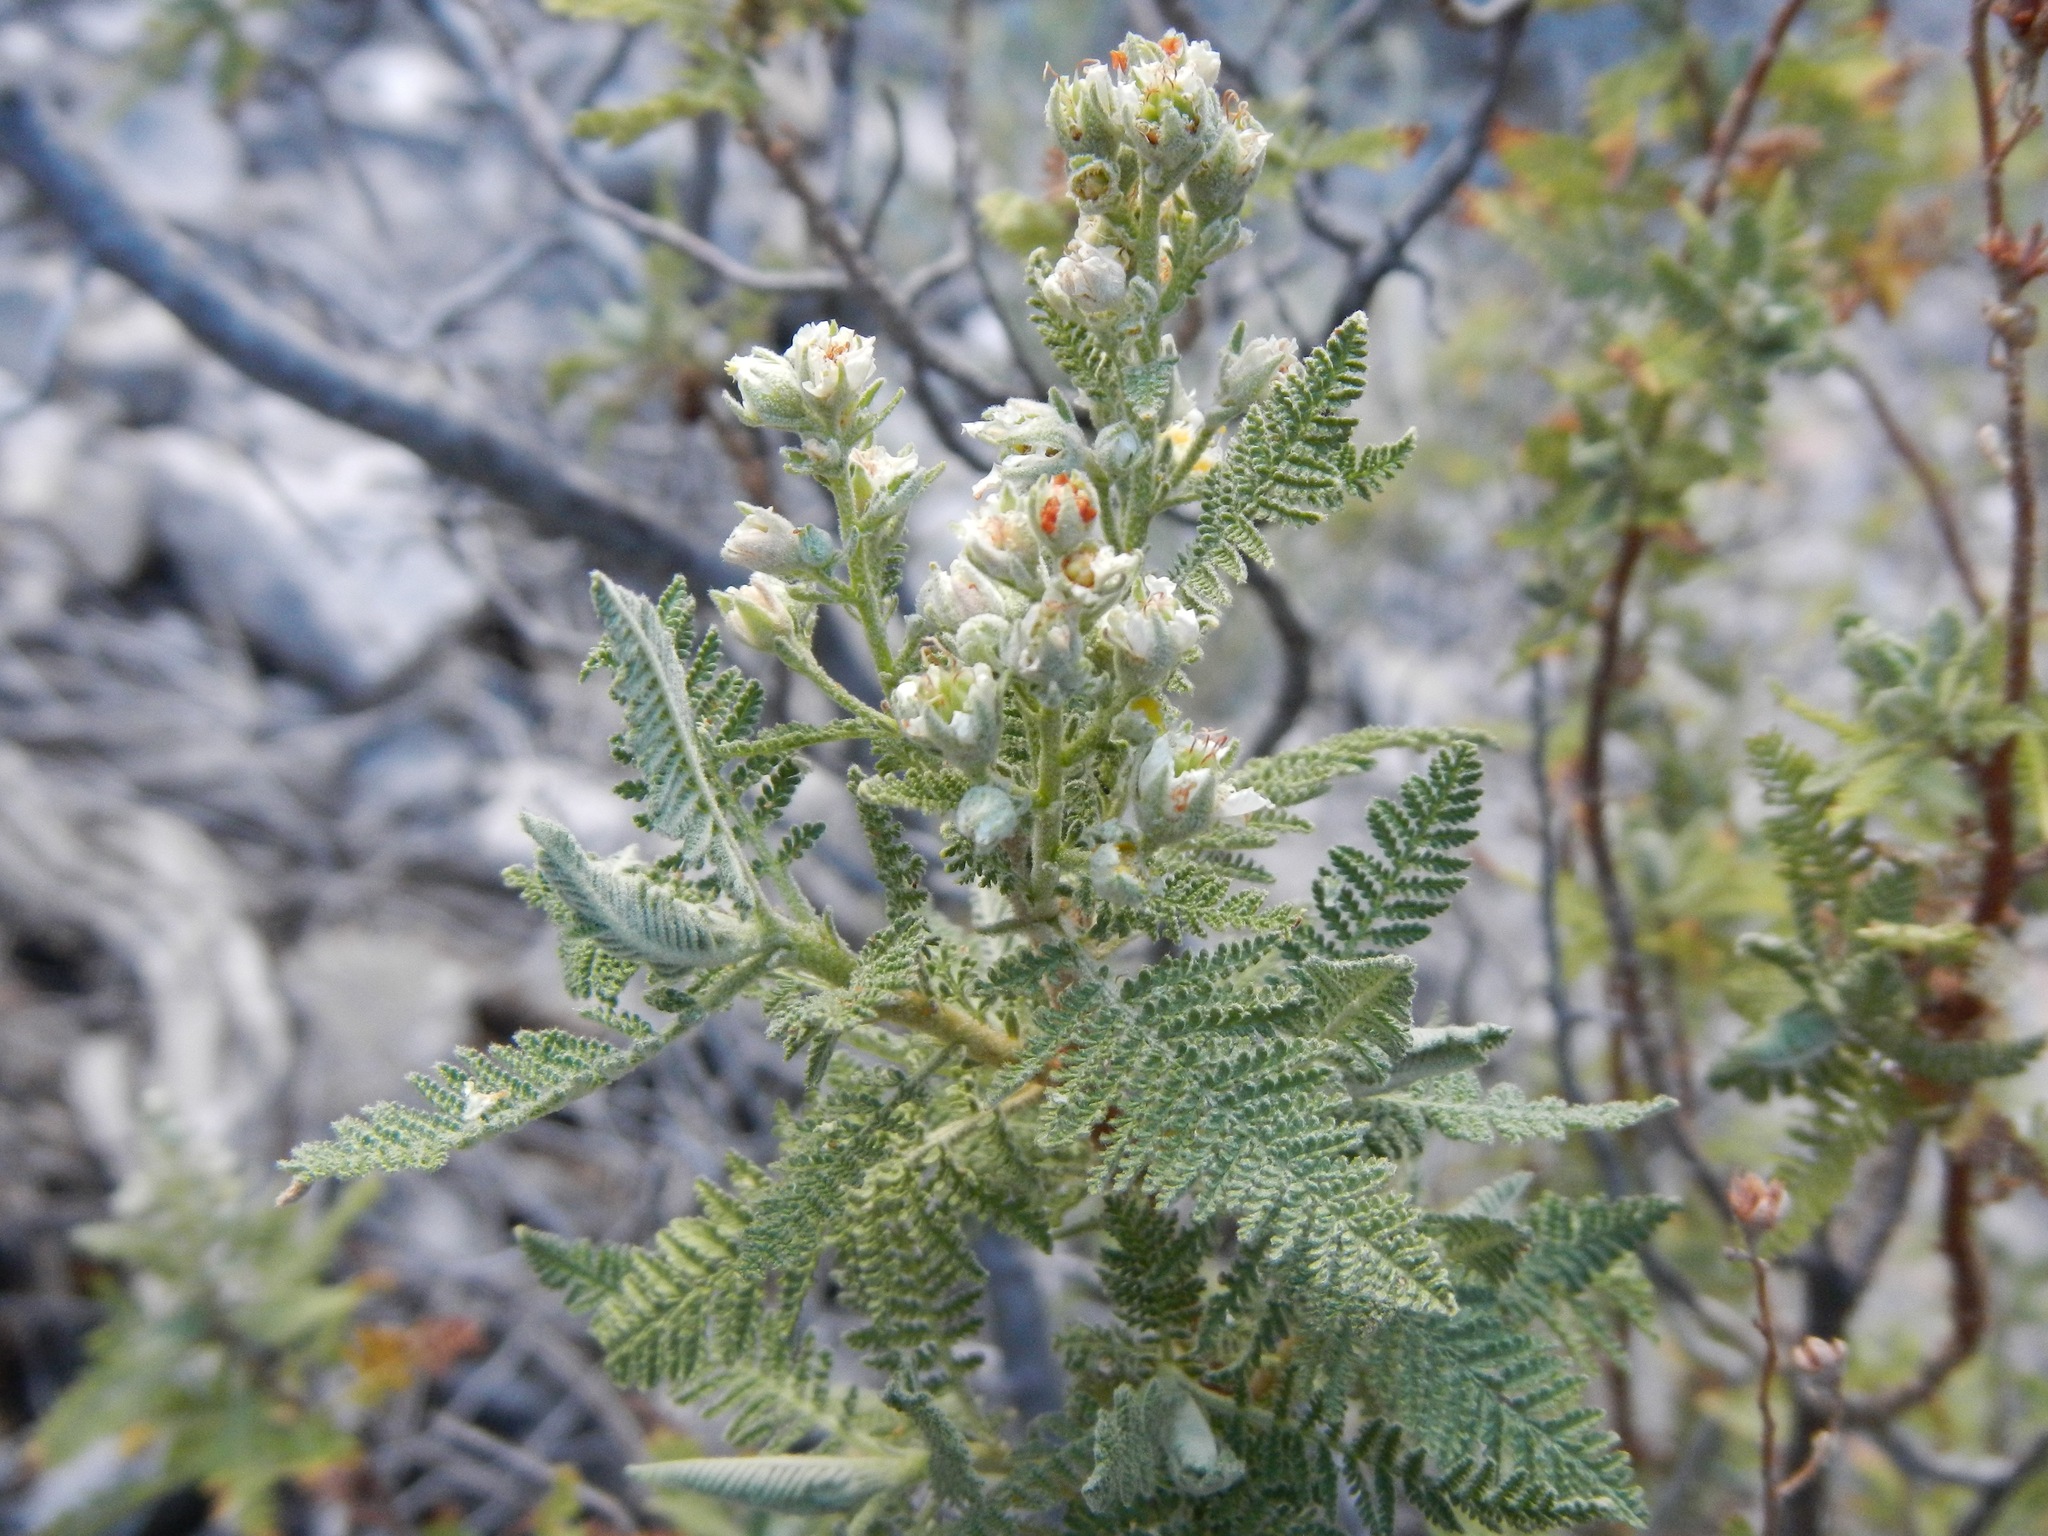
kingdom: Plantae
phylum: Tracheophyta
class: Magnoliopsida
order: Rosales
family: Rosaceae
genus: Chamaebatiaria
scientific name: Chamaebatiaria millefolium
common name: Fernbush
